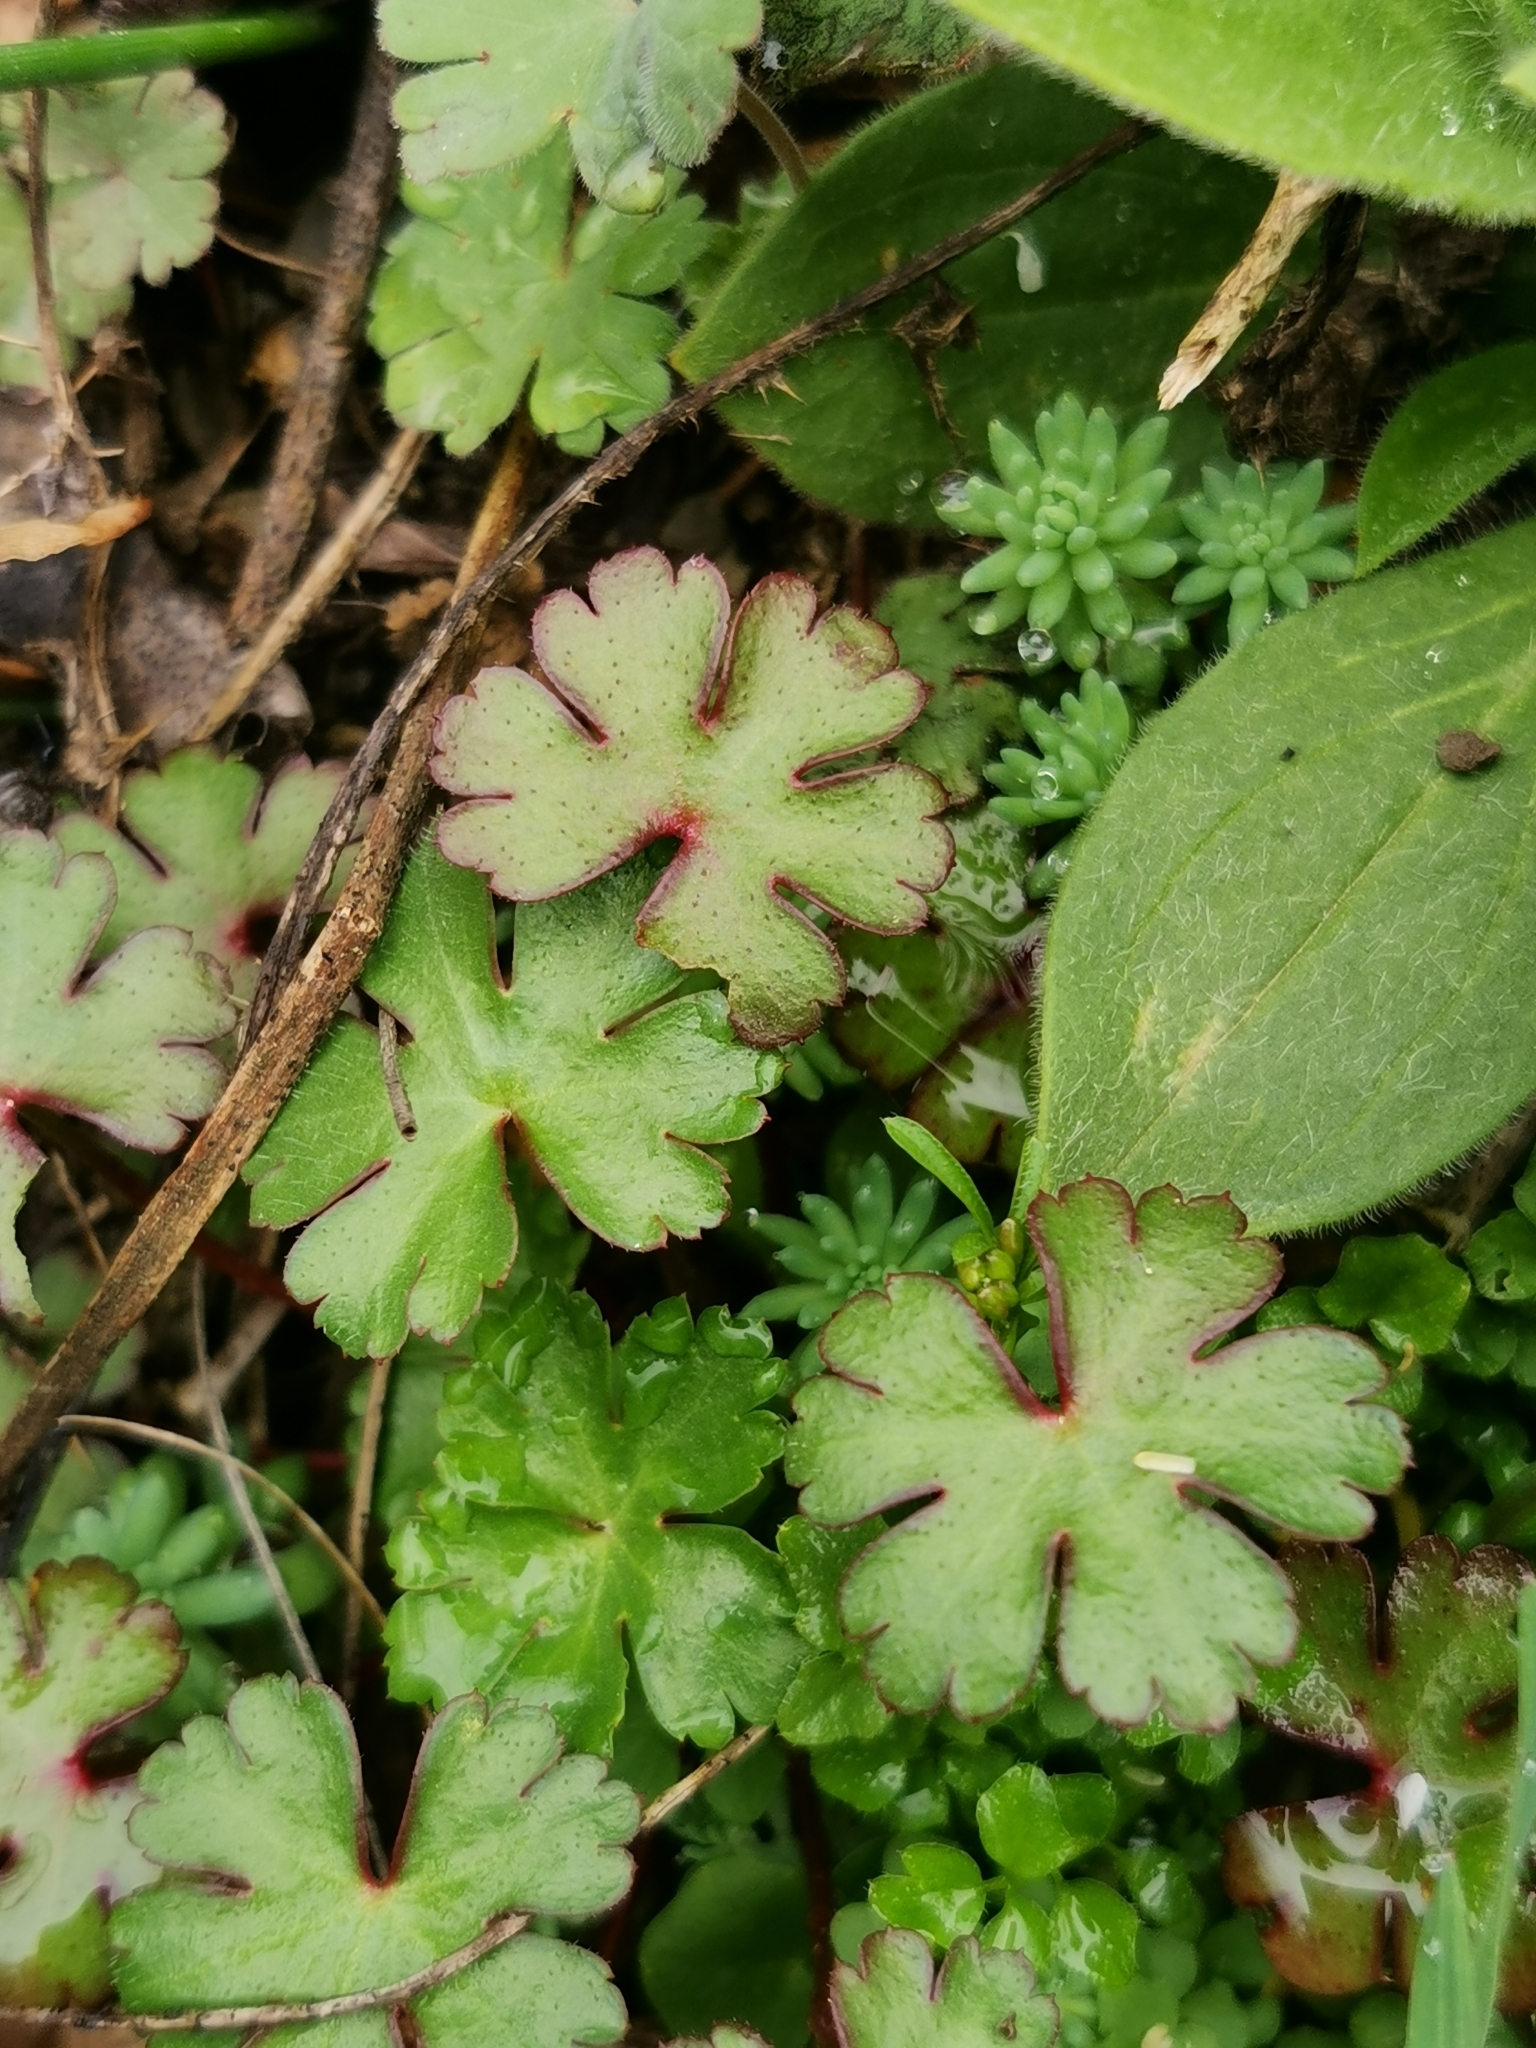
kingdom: Plantae
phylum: Tracheophyta
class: Magnoliopsida
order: Geraniales
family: Geraniaceae
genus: Geranium
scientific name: Geranium lucidum
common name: Shining crane's-bill
